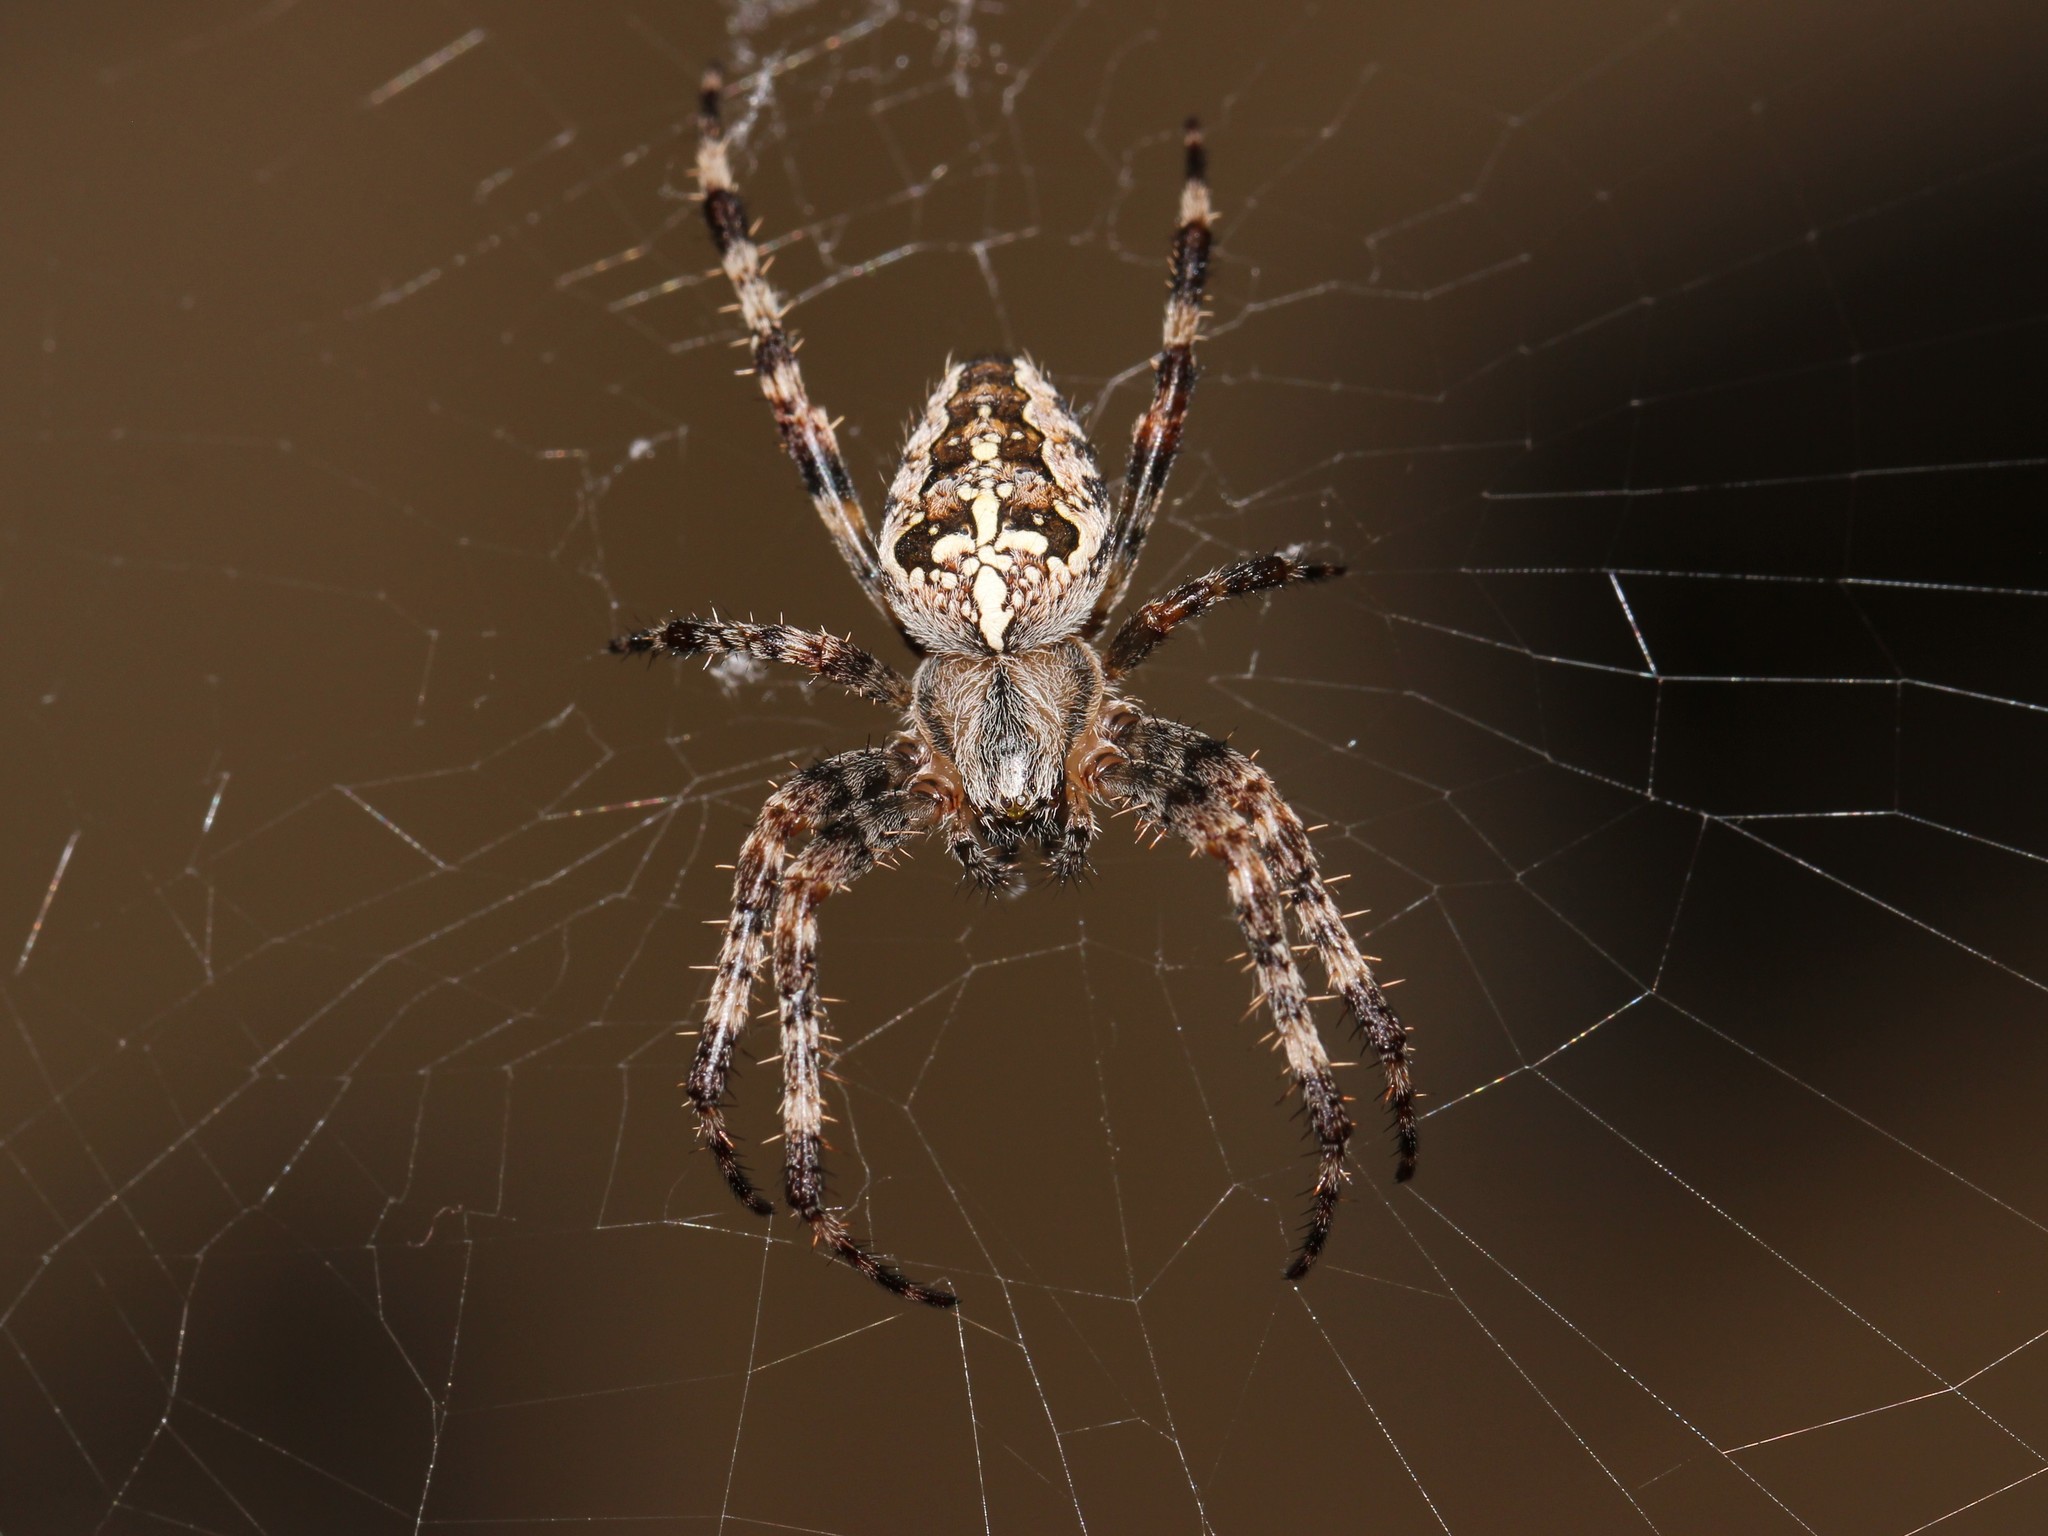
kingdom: Animalia
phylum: Arthropoda
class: Arachnida
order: Araneae
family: Araneidae
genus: Araneus
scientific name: Araneus diadematus
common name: Cross orbweaver
